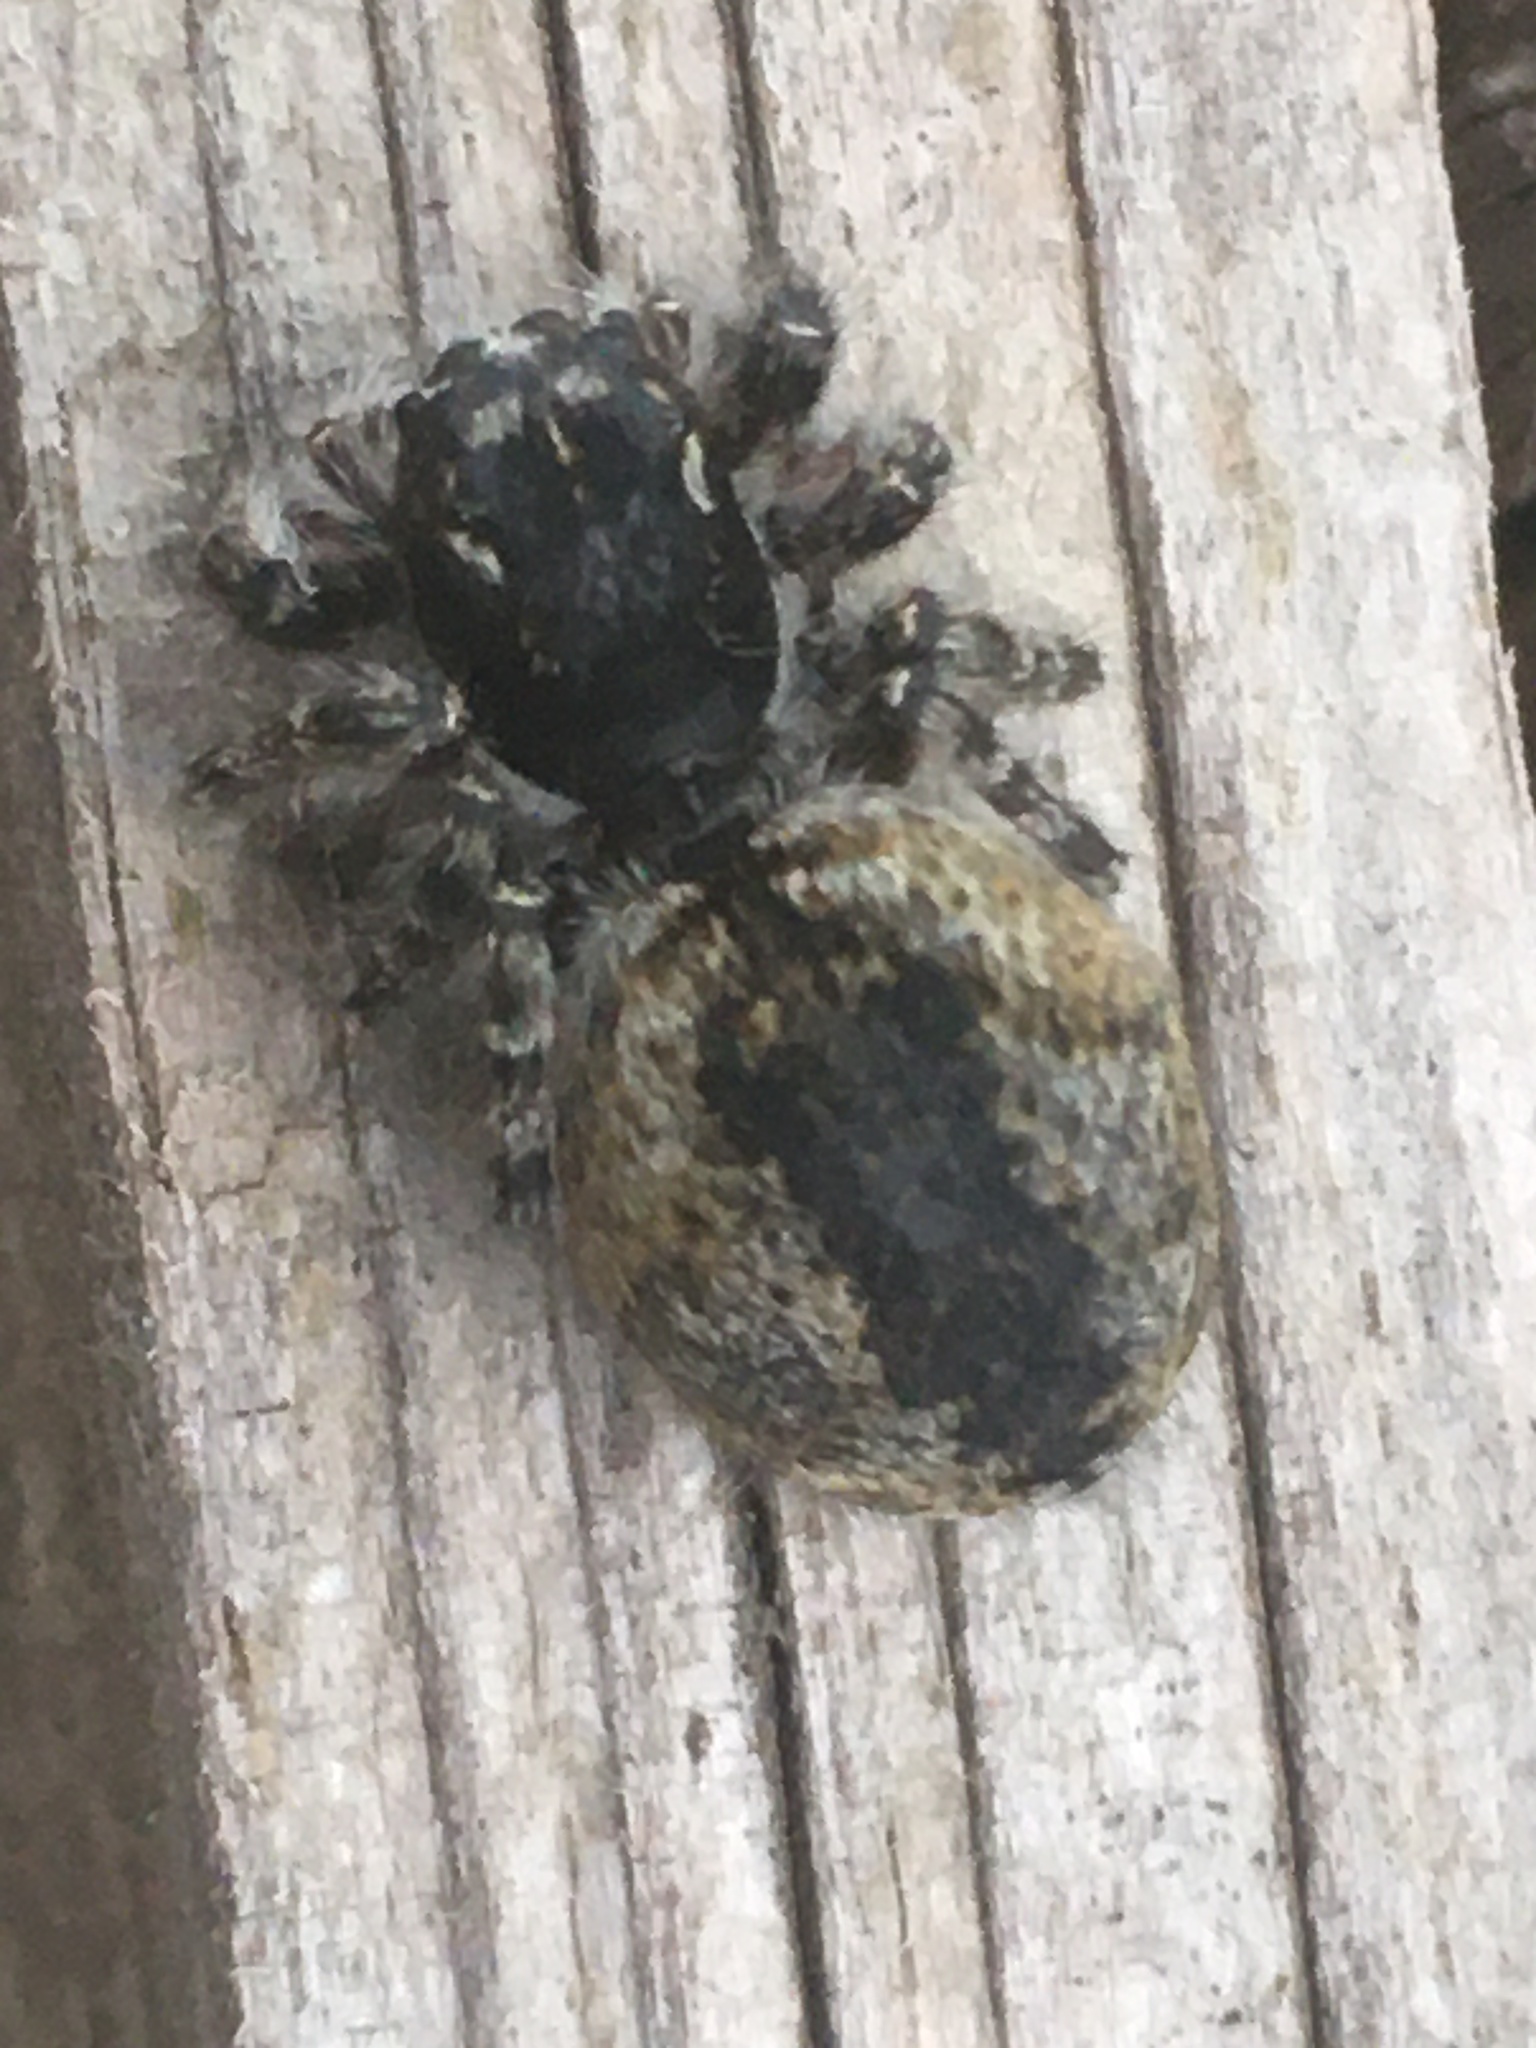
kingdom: Animalia
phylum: Arthropoda
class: Arachnida
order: Araneae
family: Salticidae
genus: Philaeus
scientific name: Philaeus chrysops
